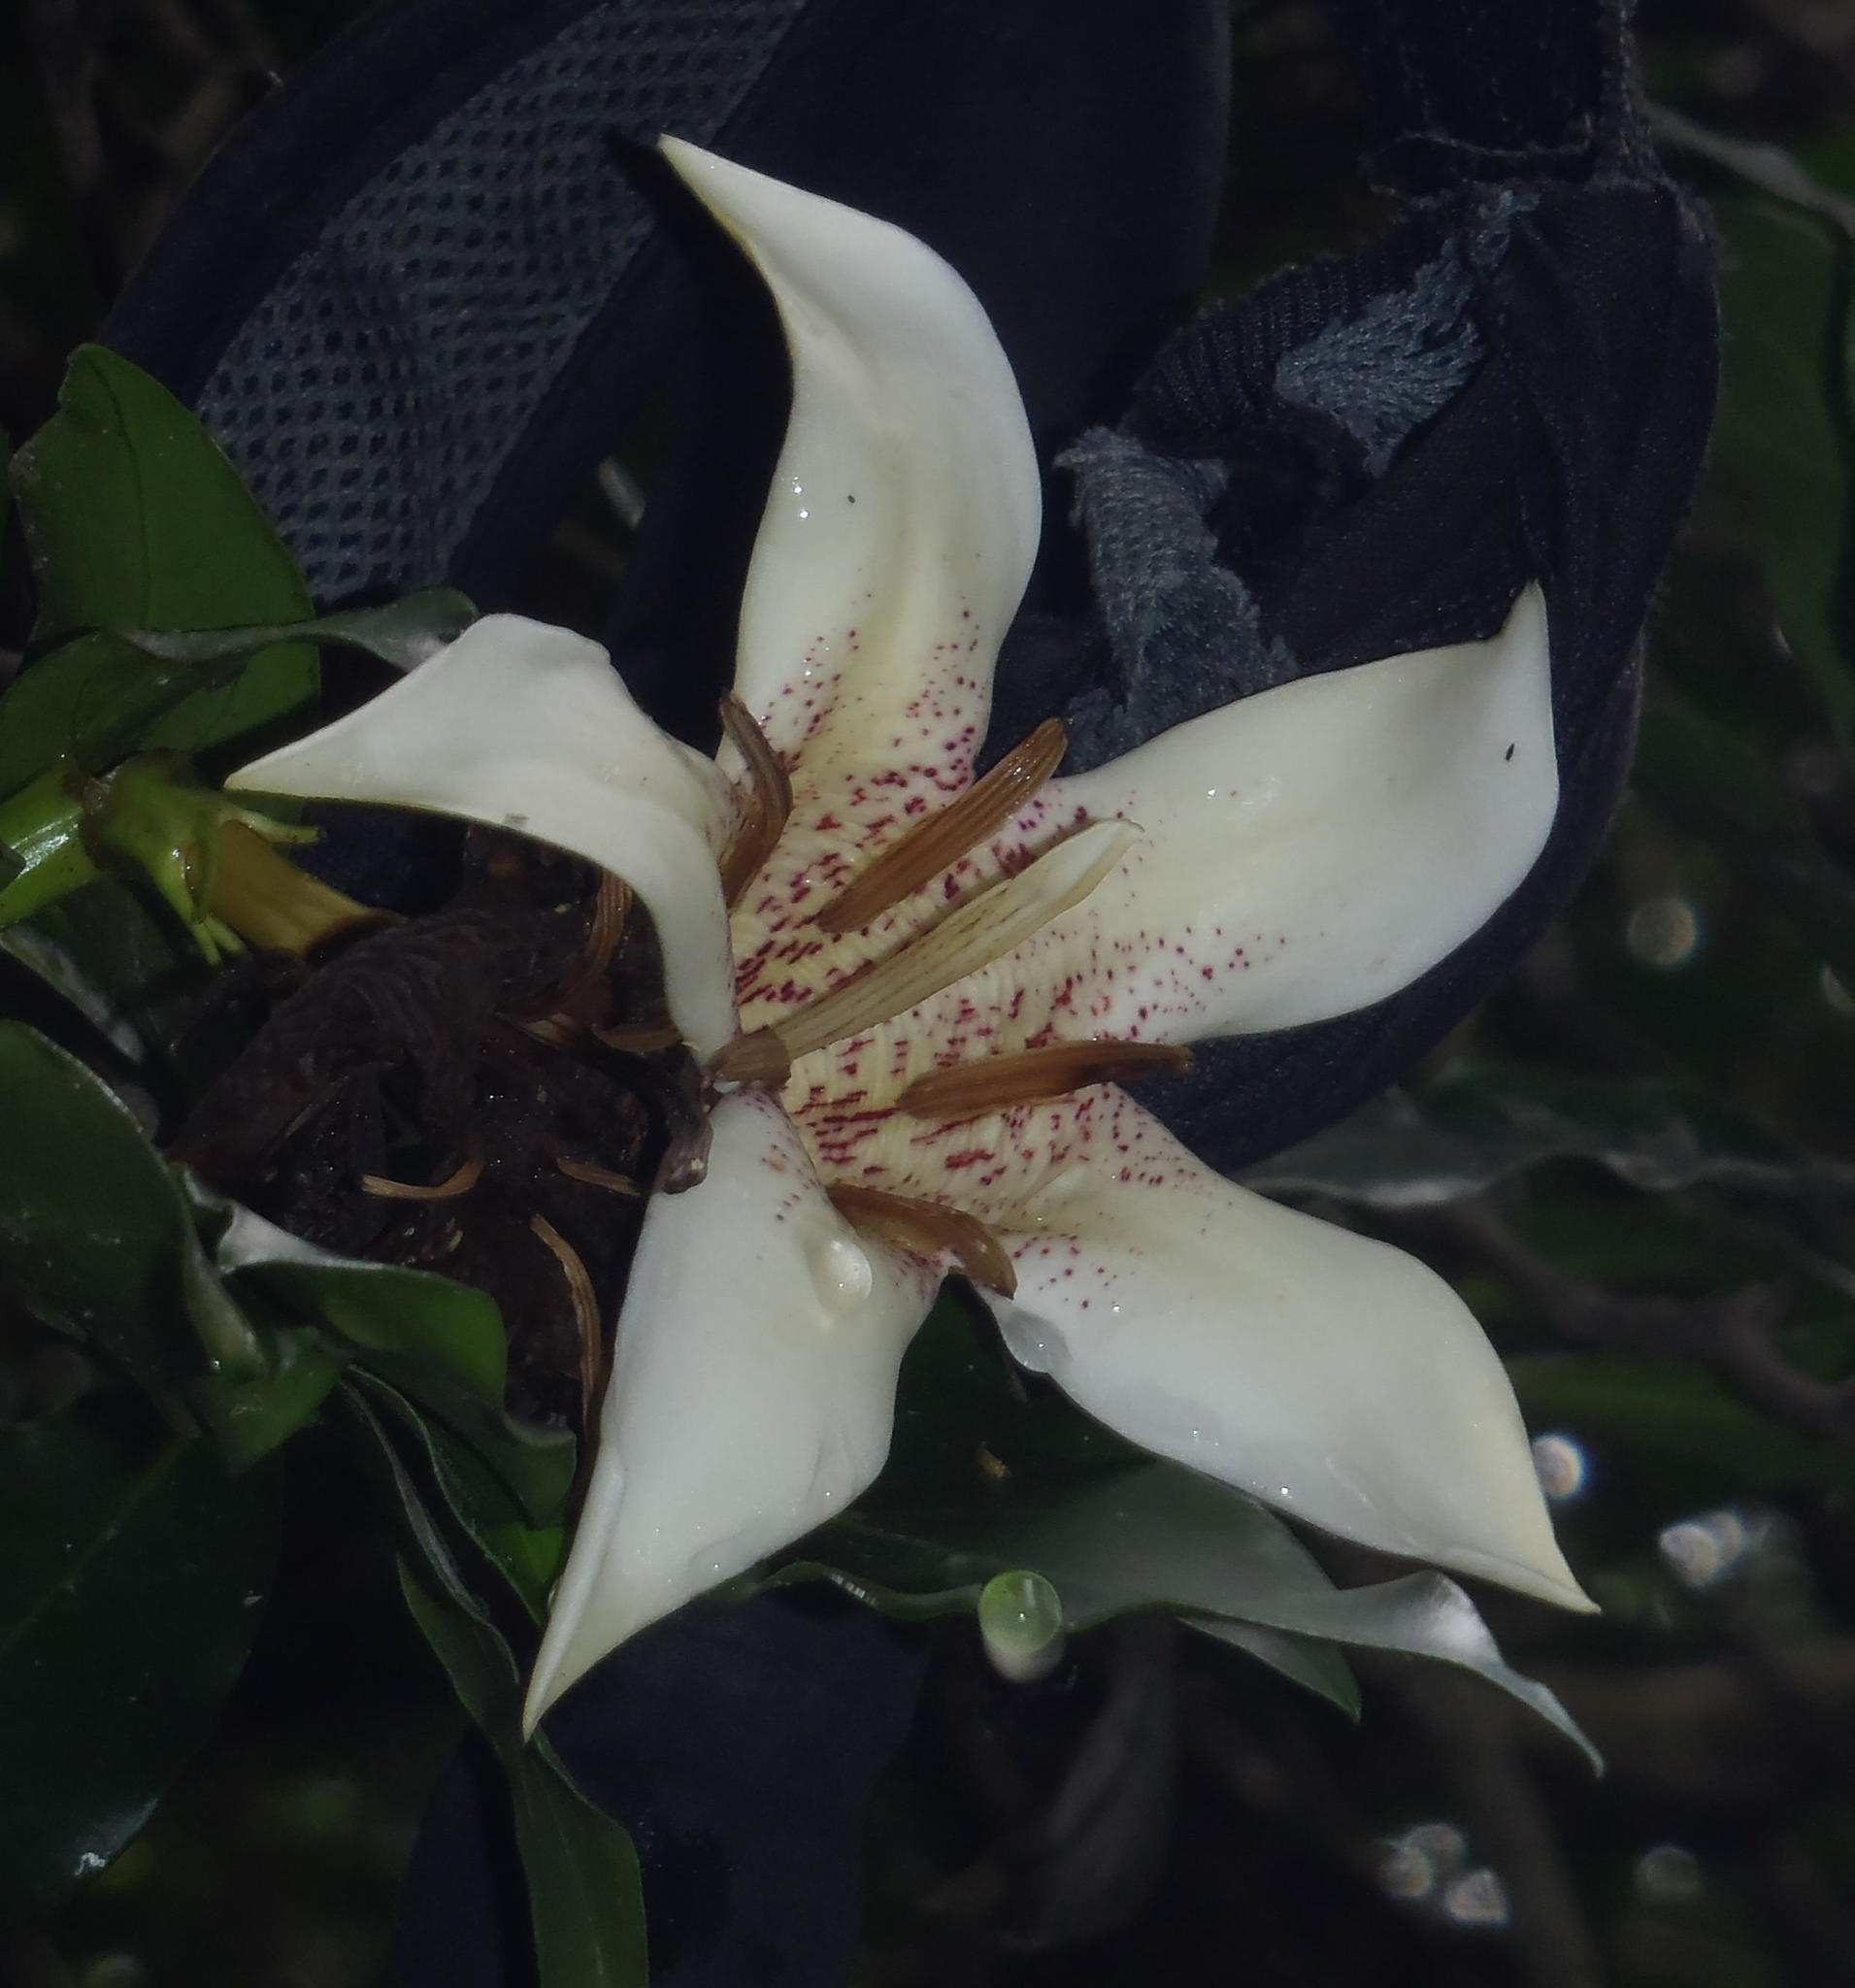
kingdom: Plantae
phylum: Tracheophyta
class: Magnoliopsida
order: Gentianales
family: Rubiaceae
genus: Rothmannia
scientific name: Rothmannia capensis
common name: Cape gardenia
